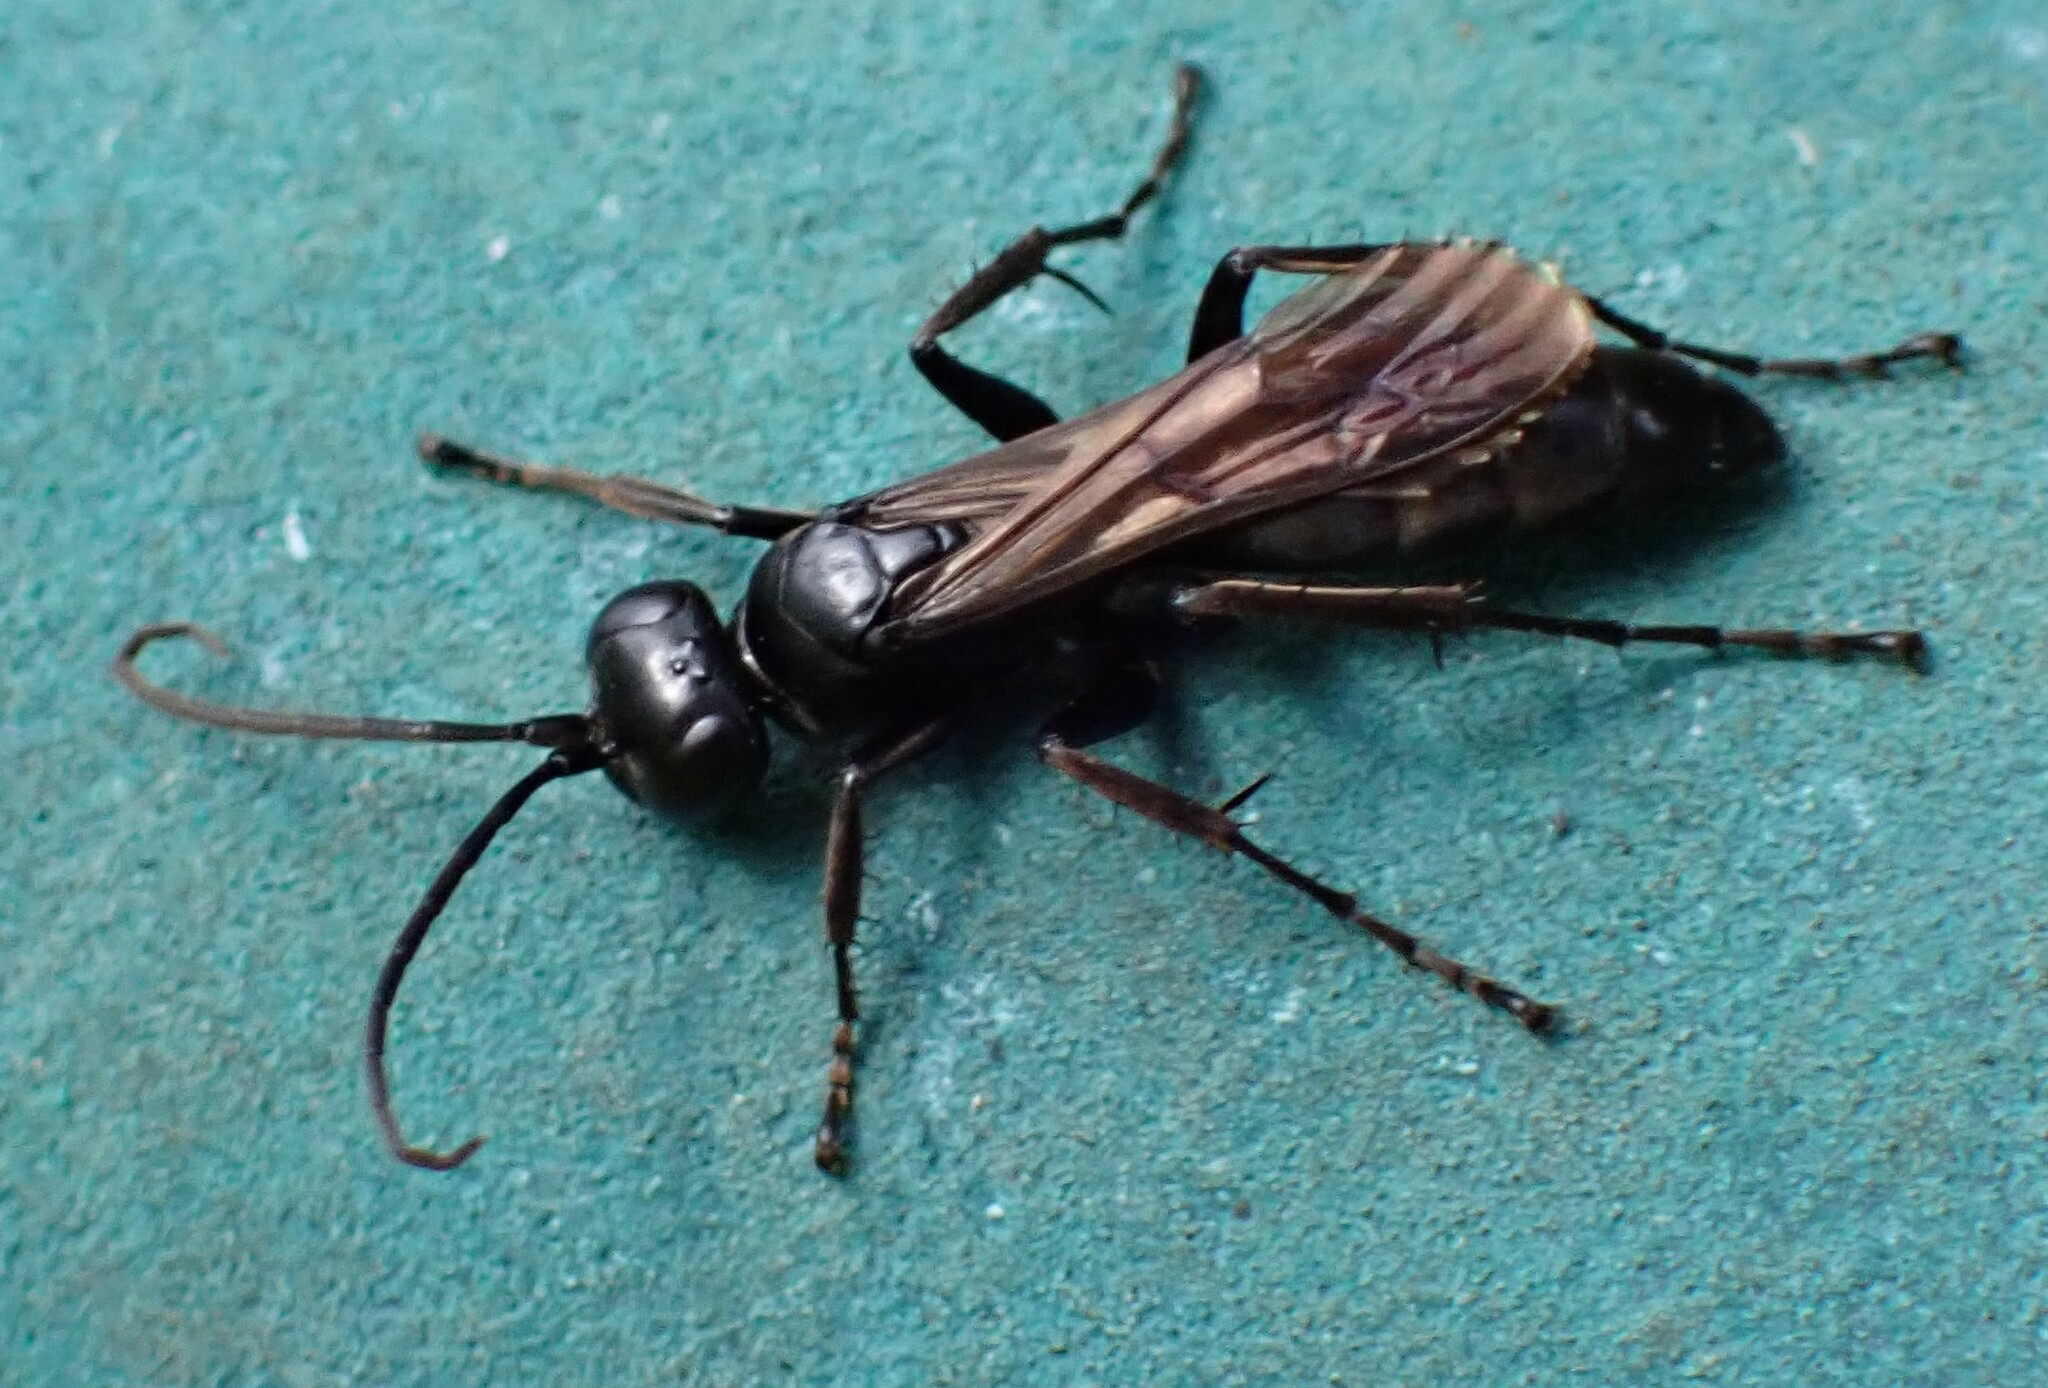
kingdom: Animalia
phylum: Arthropoda
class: Insecta
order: Hymenoptera
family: Pompilidae
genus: Anoplius
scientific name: Anoplius nigerrimus
